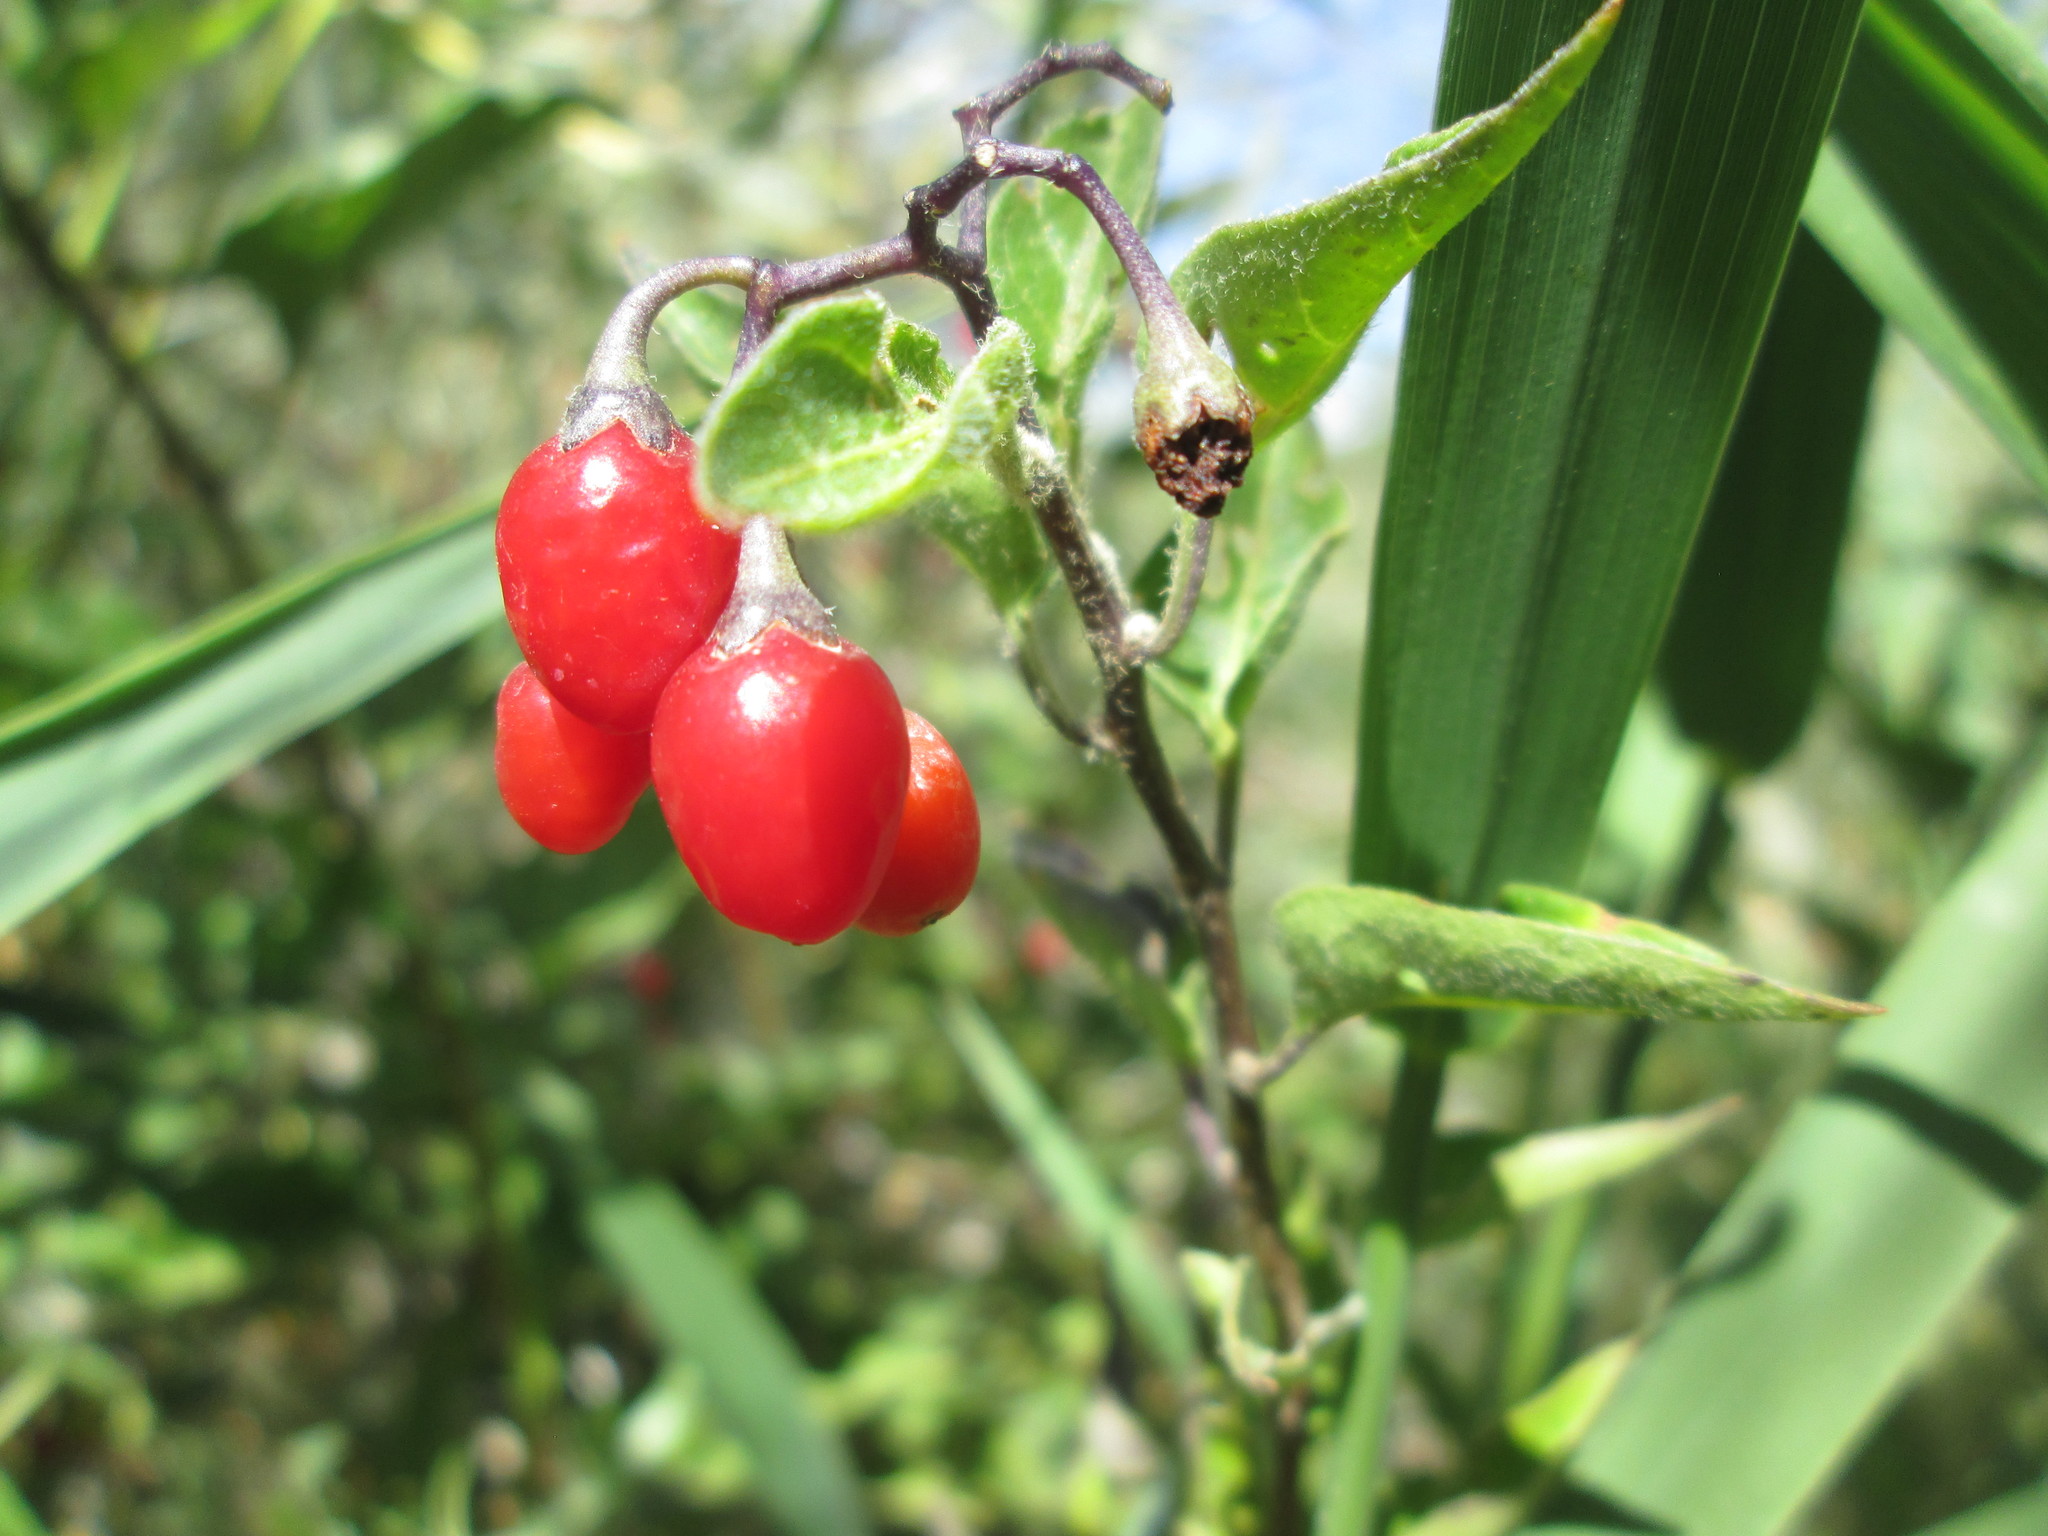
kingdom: Plantae
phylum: Tracheophyta
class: Magnoliopsida
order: Solanales
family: Solanaceae
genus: Solanum
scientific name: Solanum dulcamara
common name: Climbing nightshade
